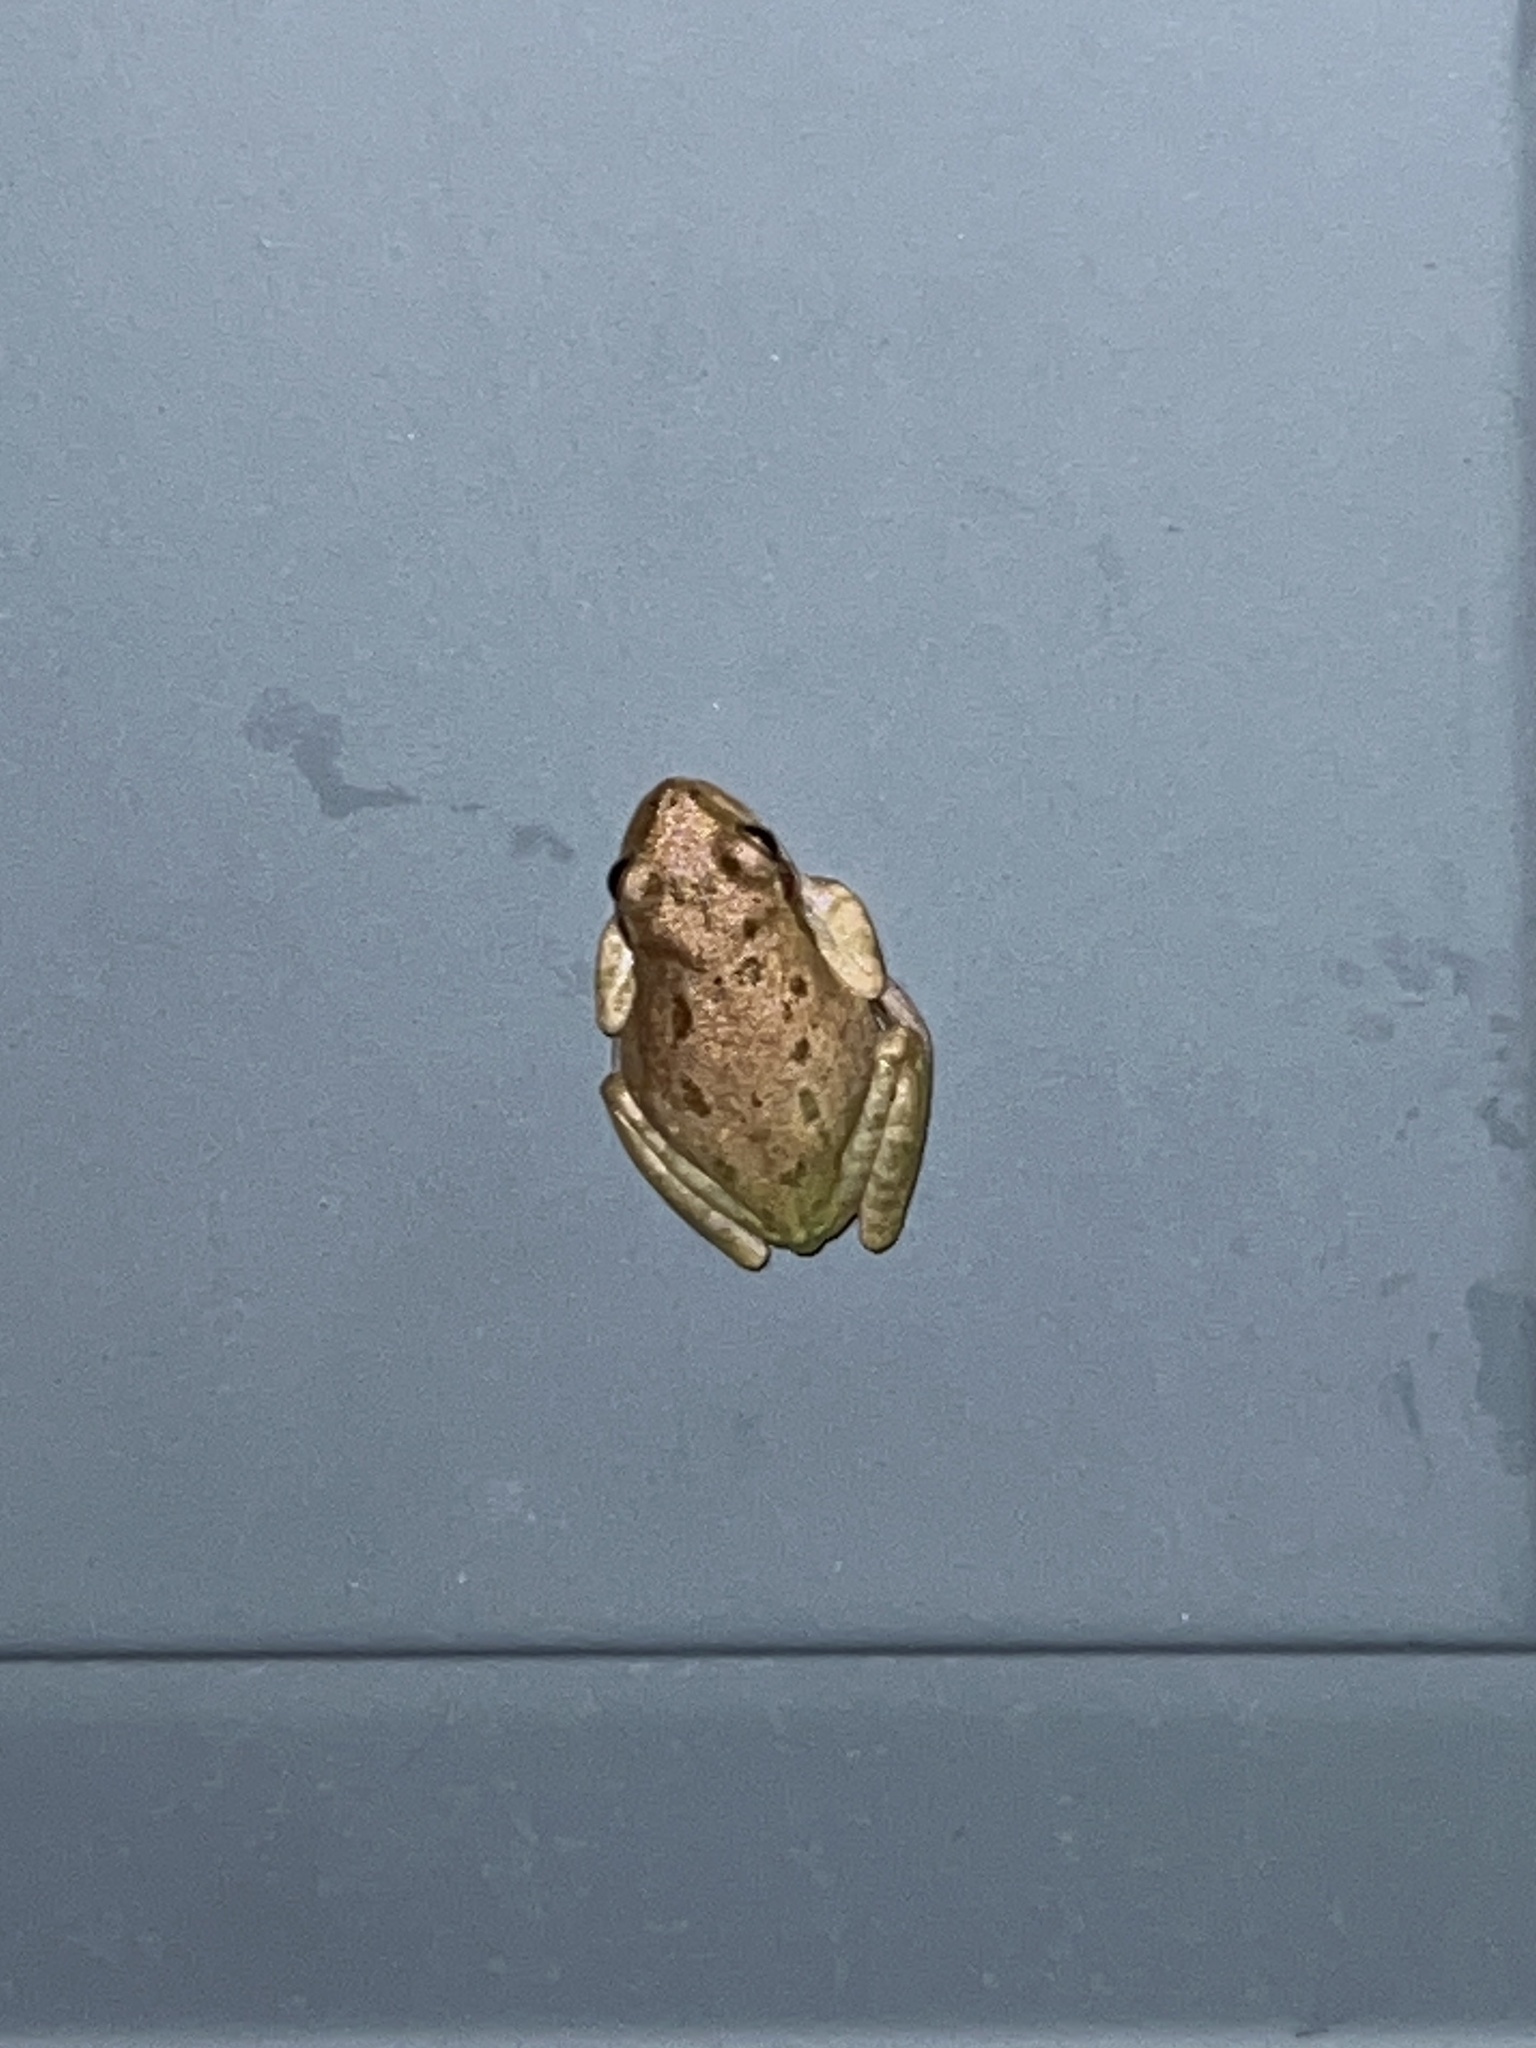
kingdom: Animalia
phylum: Chordata
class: Amphibia
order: Anura
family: Hylidae
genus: Dryophytes
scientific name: Dryophytes squirellus
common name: Squirrel treefrog
